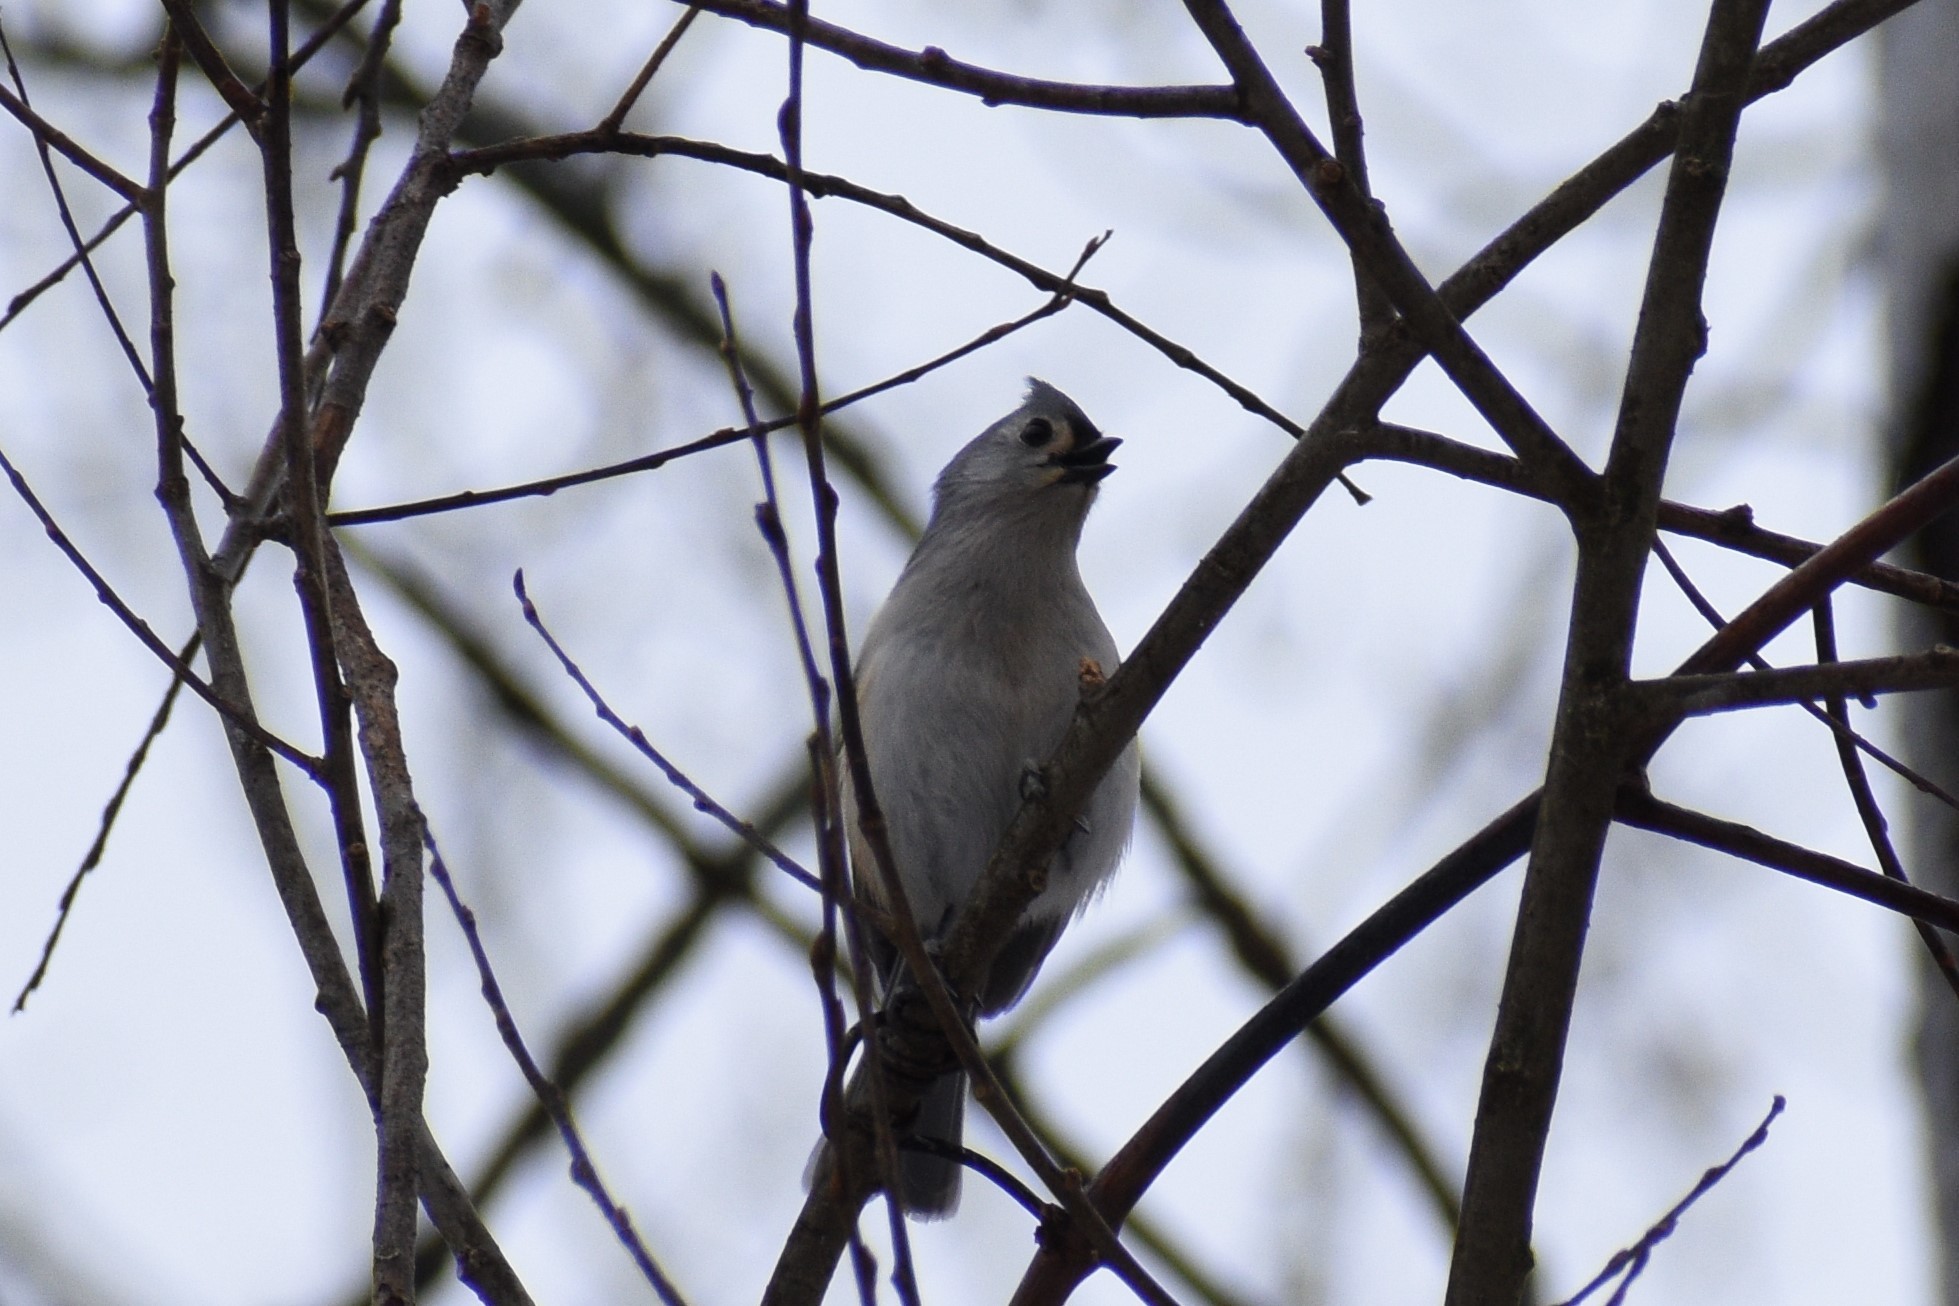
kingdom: Animalia
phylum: Chordata
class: Aves
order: Passeriformes
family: Paridae
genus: Baeolophus
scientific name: Baeolophus bicolor
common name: Tufted titmouse
